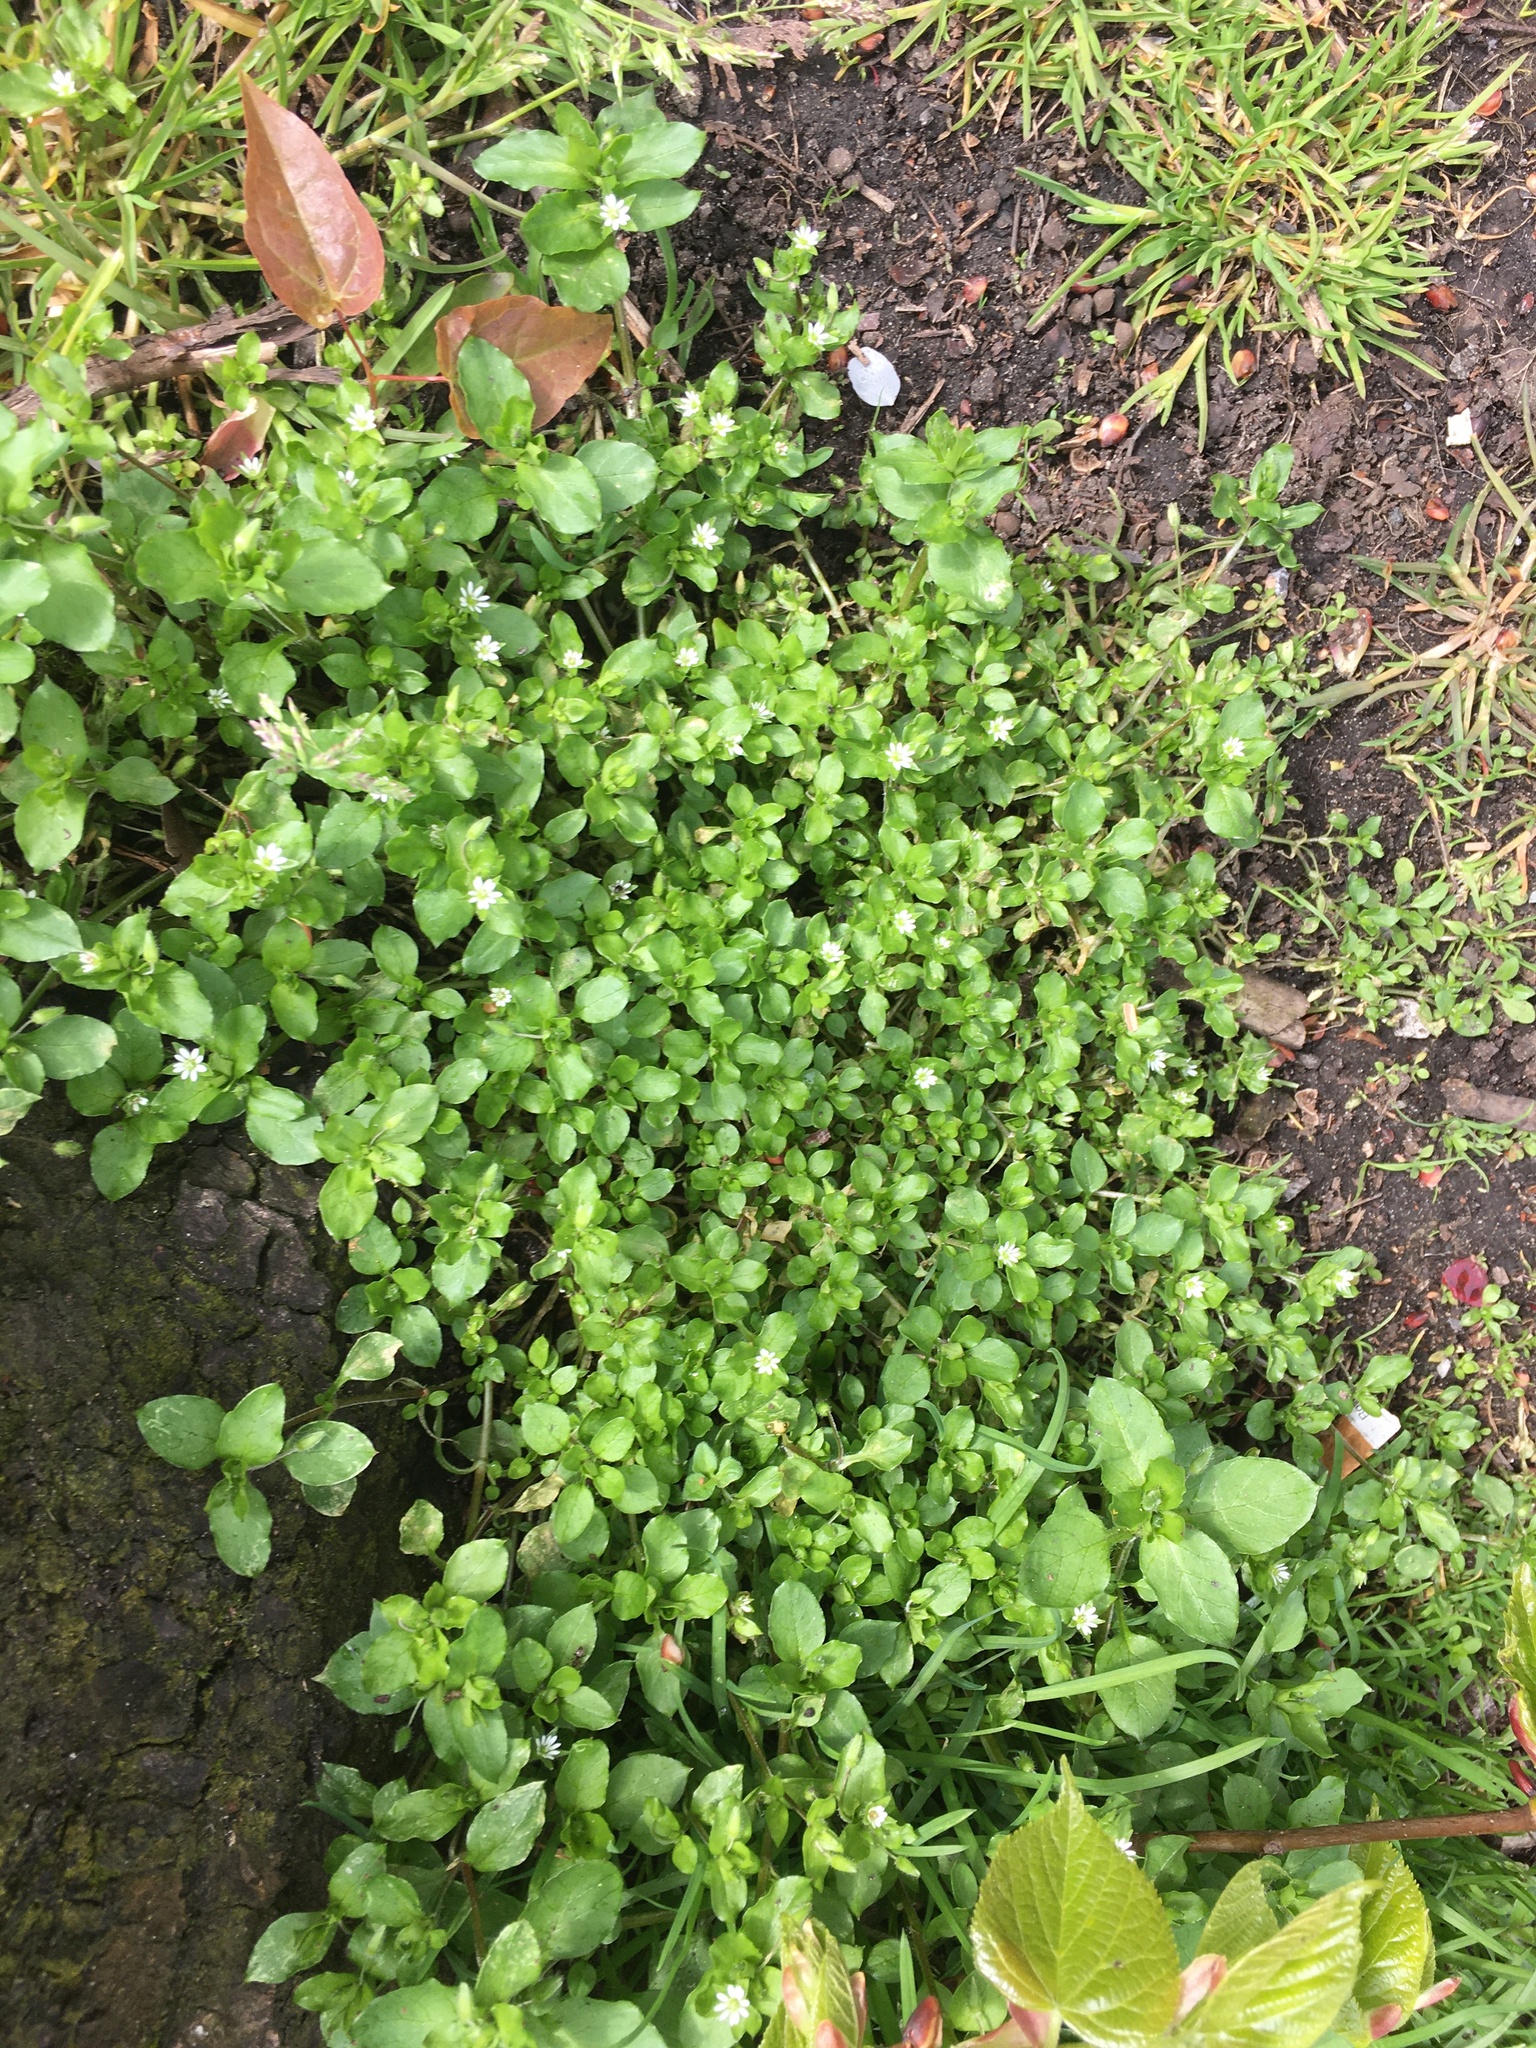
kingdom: Plantae
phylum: Tracheophyta
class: Magnoliopsida
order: Caryophyllales
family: Caryophyllaceae
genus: Stellaria
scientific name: Stellaria media
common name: Common chickweed
